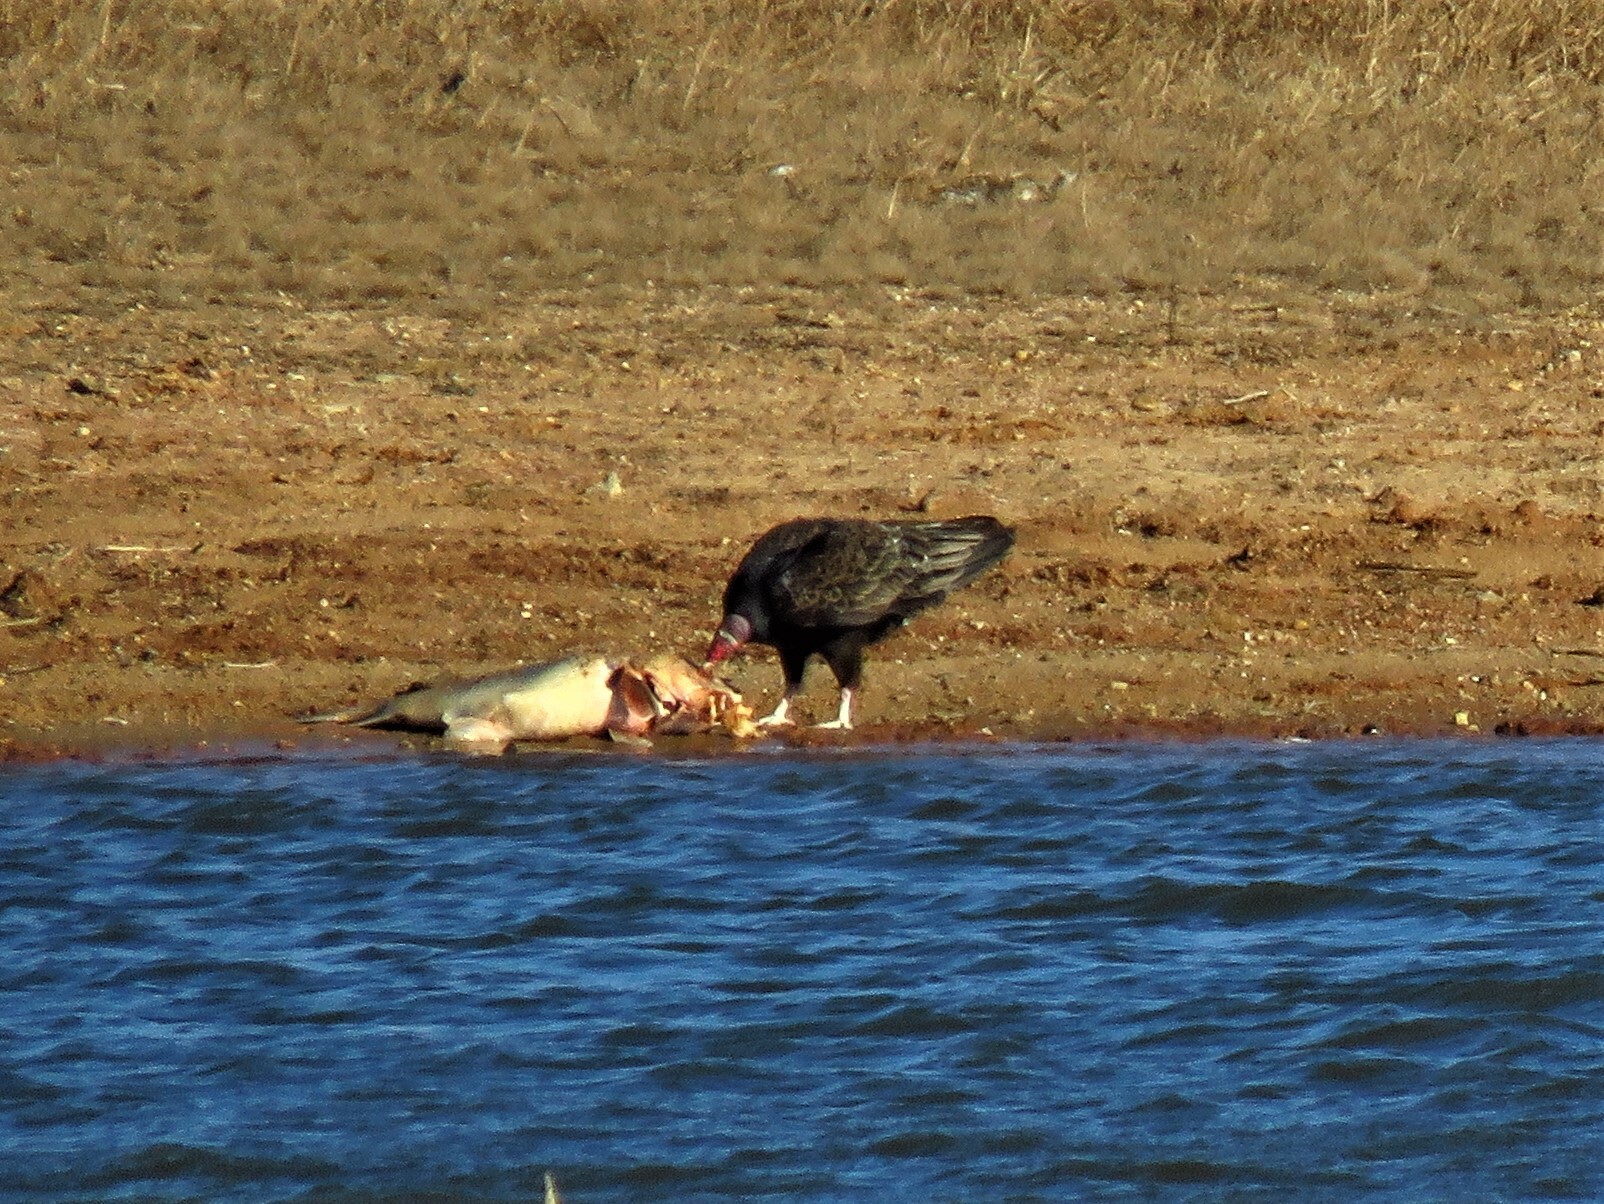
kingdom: Animalia
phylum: Chordata
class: Aves
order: Accipitriformes
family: Cathartidae
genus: Cathartes
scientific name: Cathartes aura
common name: Turkey vulture
